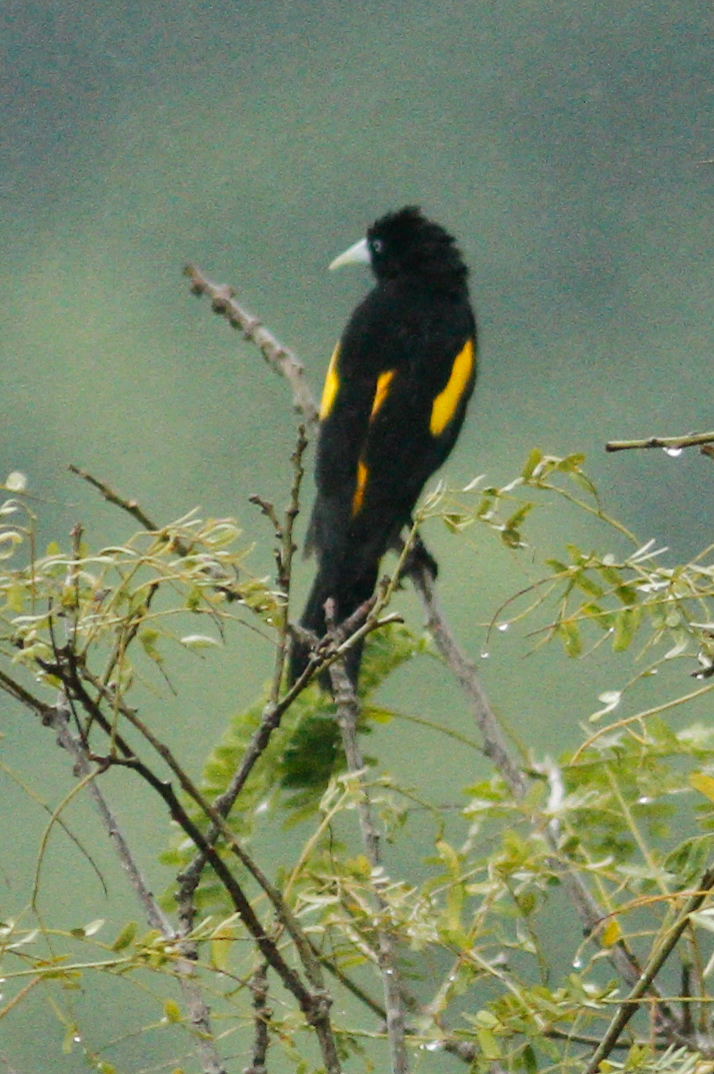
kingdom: Animalia
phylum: Chordata
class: Aves
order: Passeriformes
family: Icteridae
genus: Cacicus
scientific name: Cacicus cela
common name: Yellow-rumped cacique
